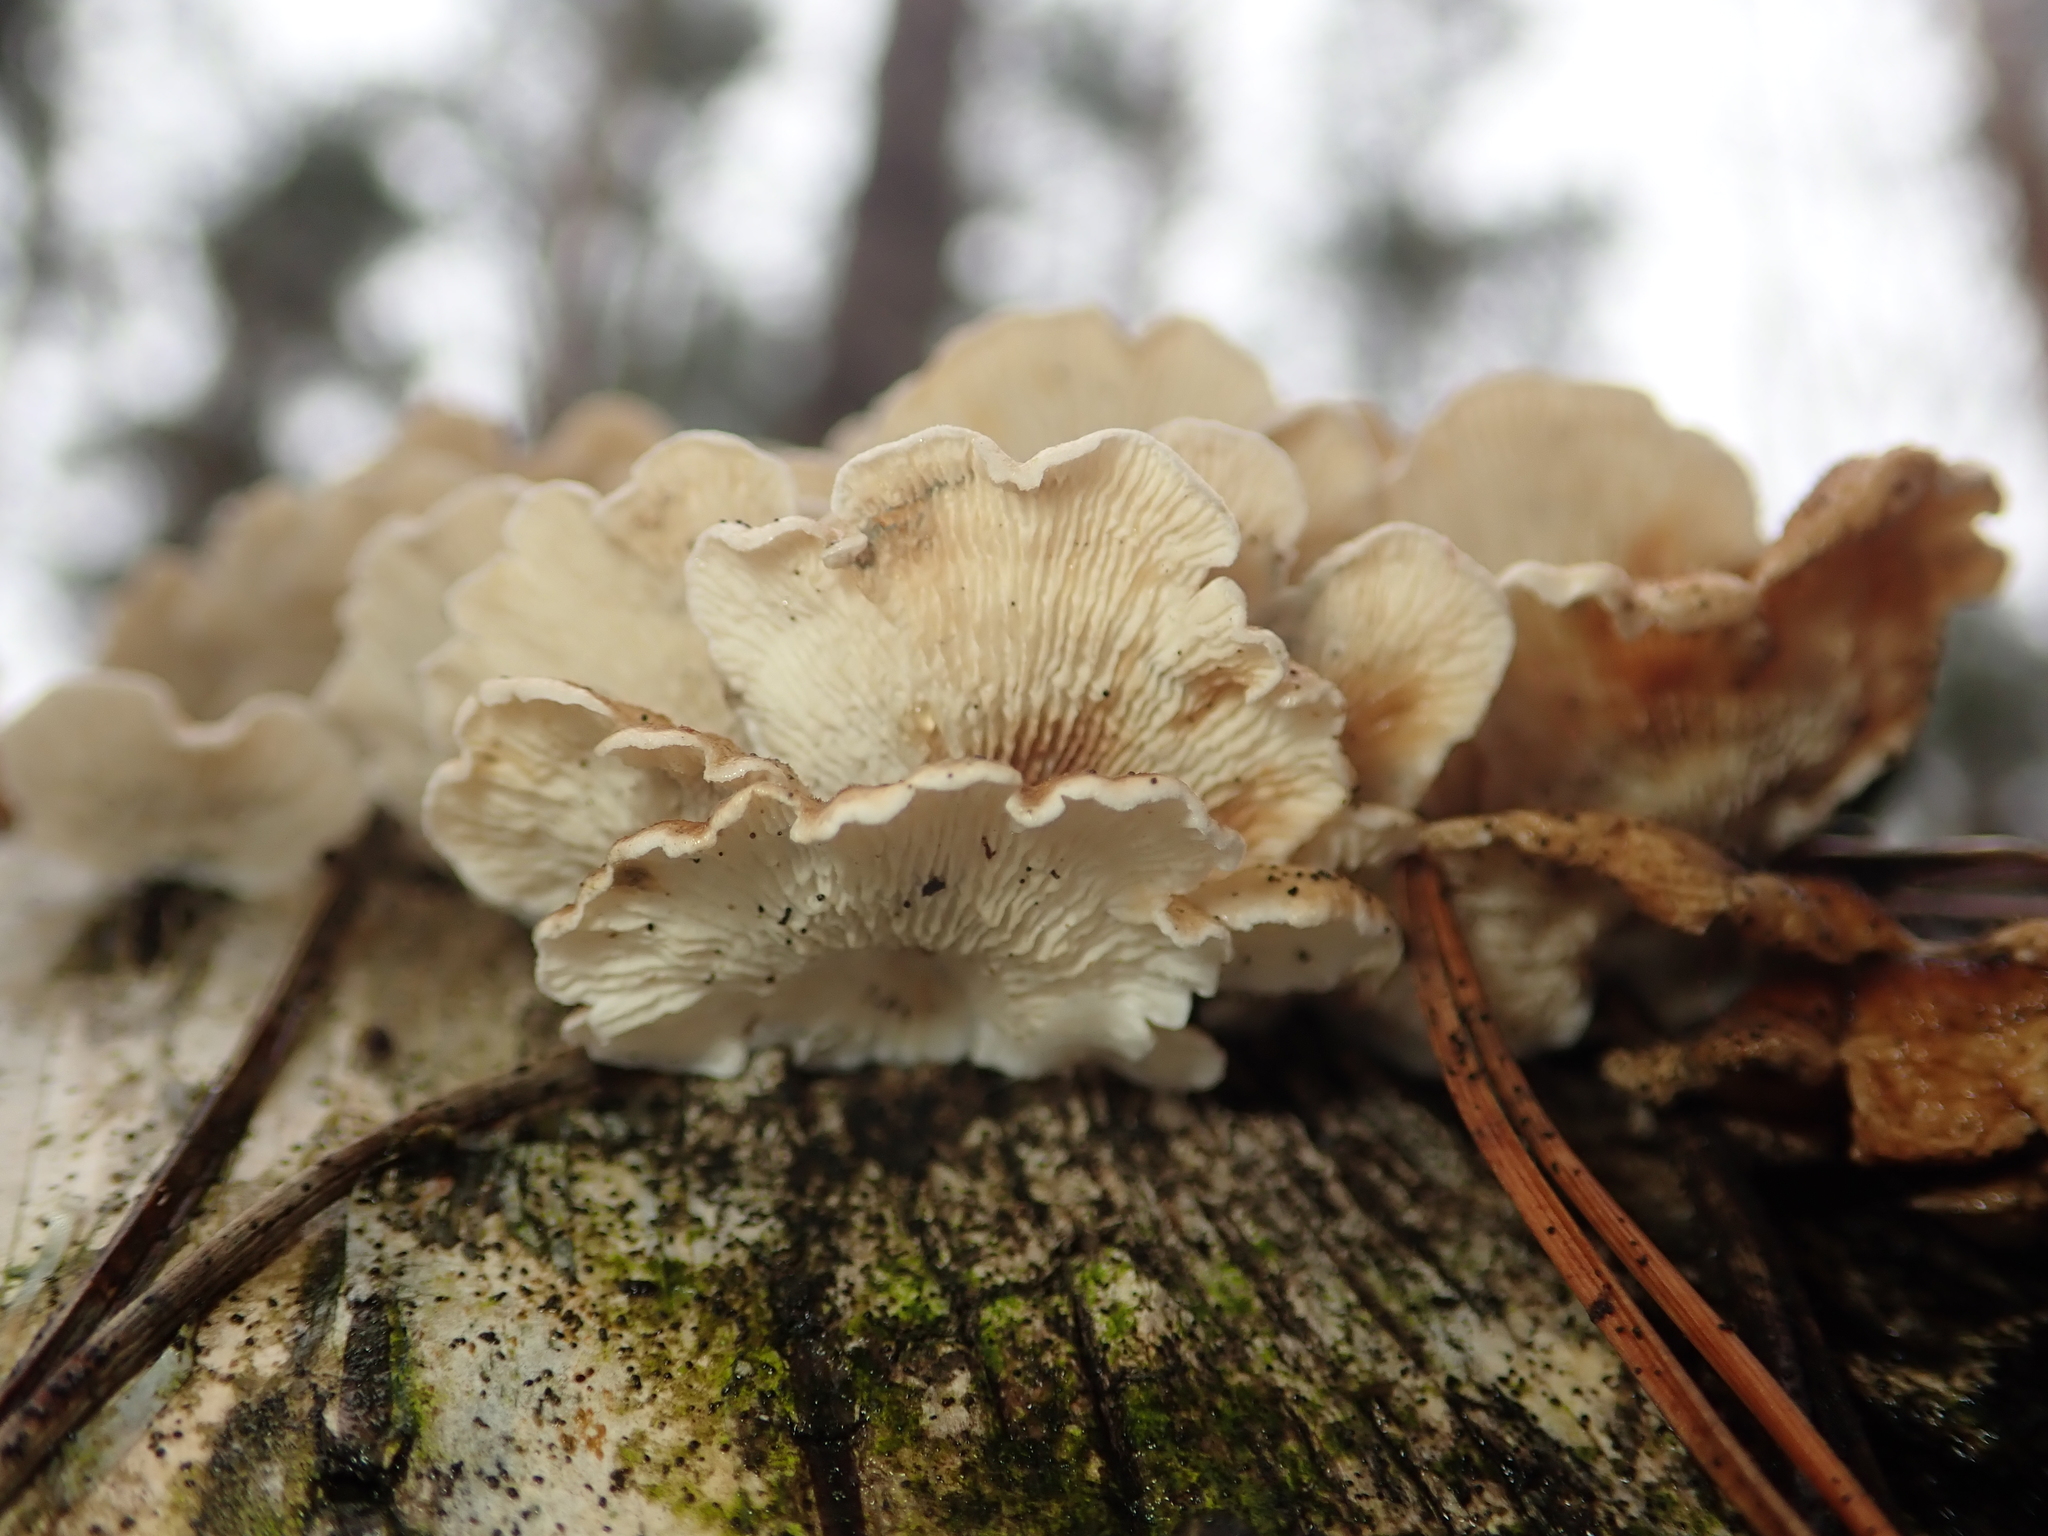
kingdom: Fungi
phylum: Basidiomycota
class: Agaricomycetes
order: Amylocorticiales
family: Amylocorticiaceae
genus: Plicaturopsis
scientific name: Plicaturopsis crispa
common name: Crimped gill
